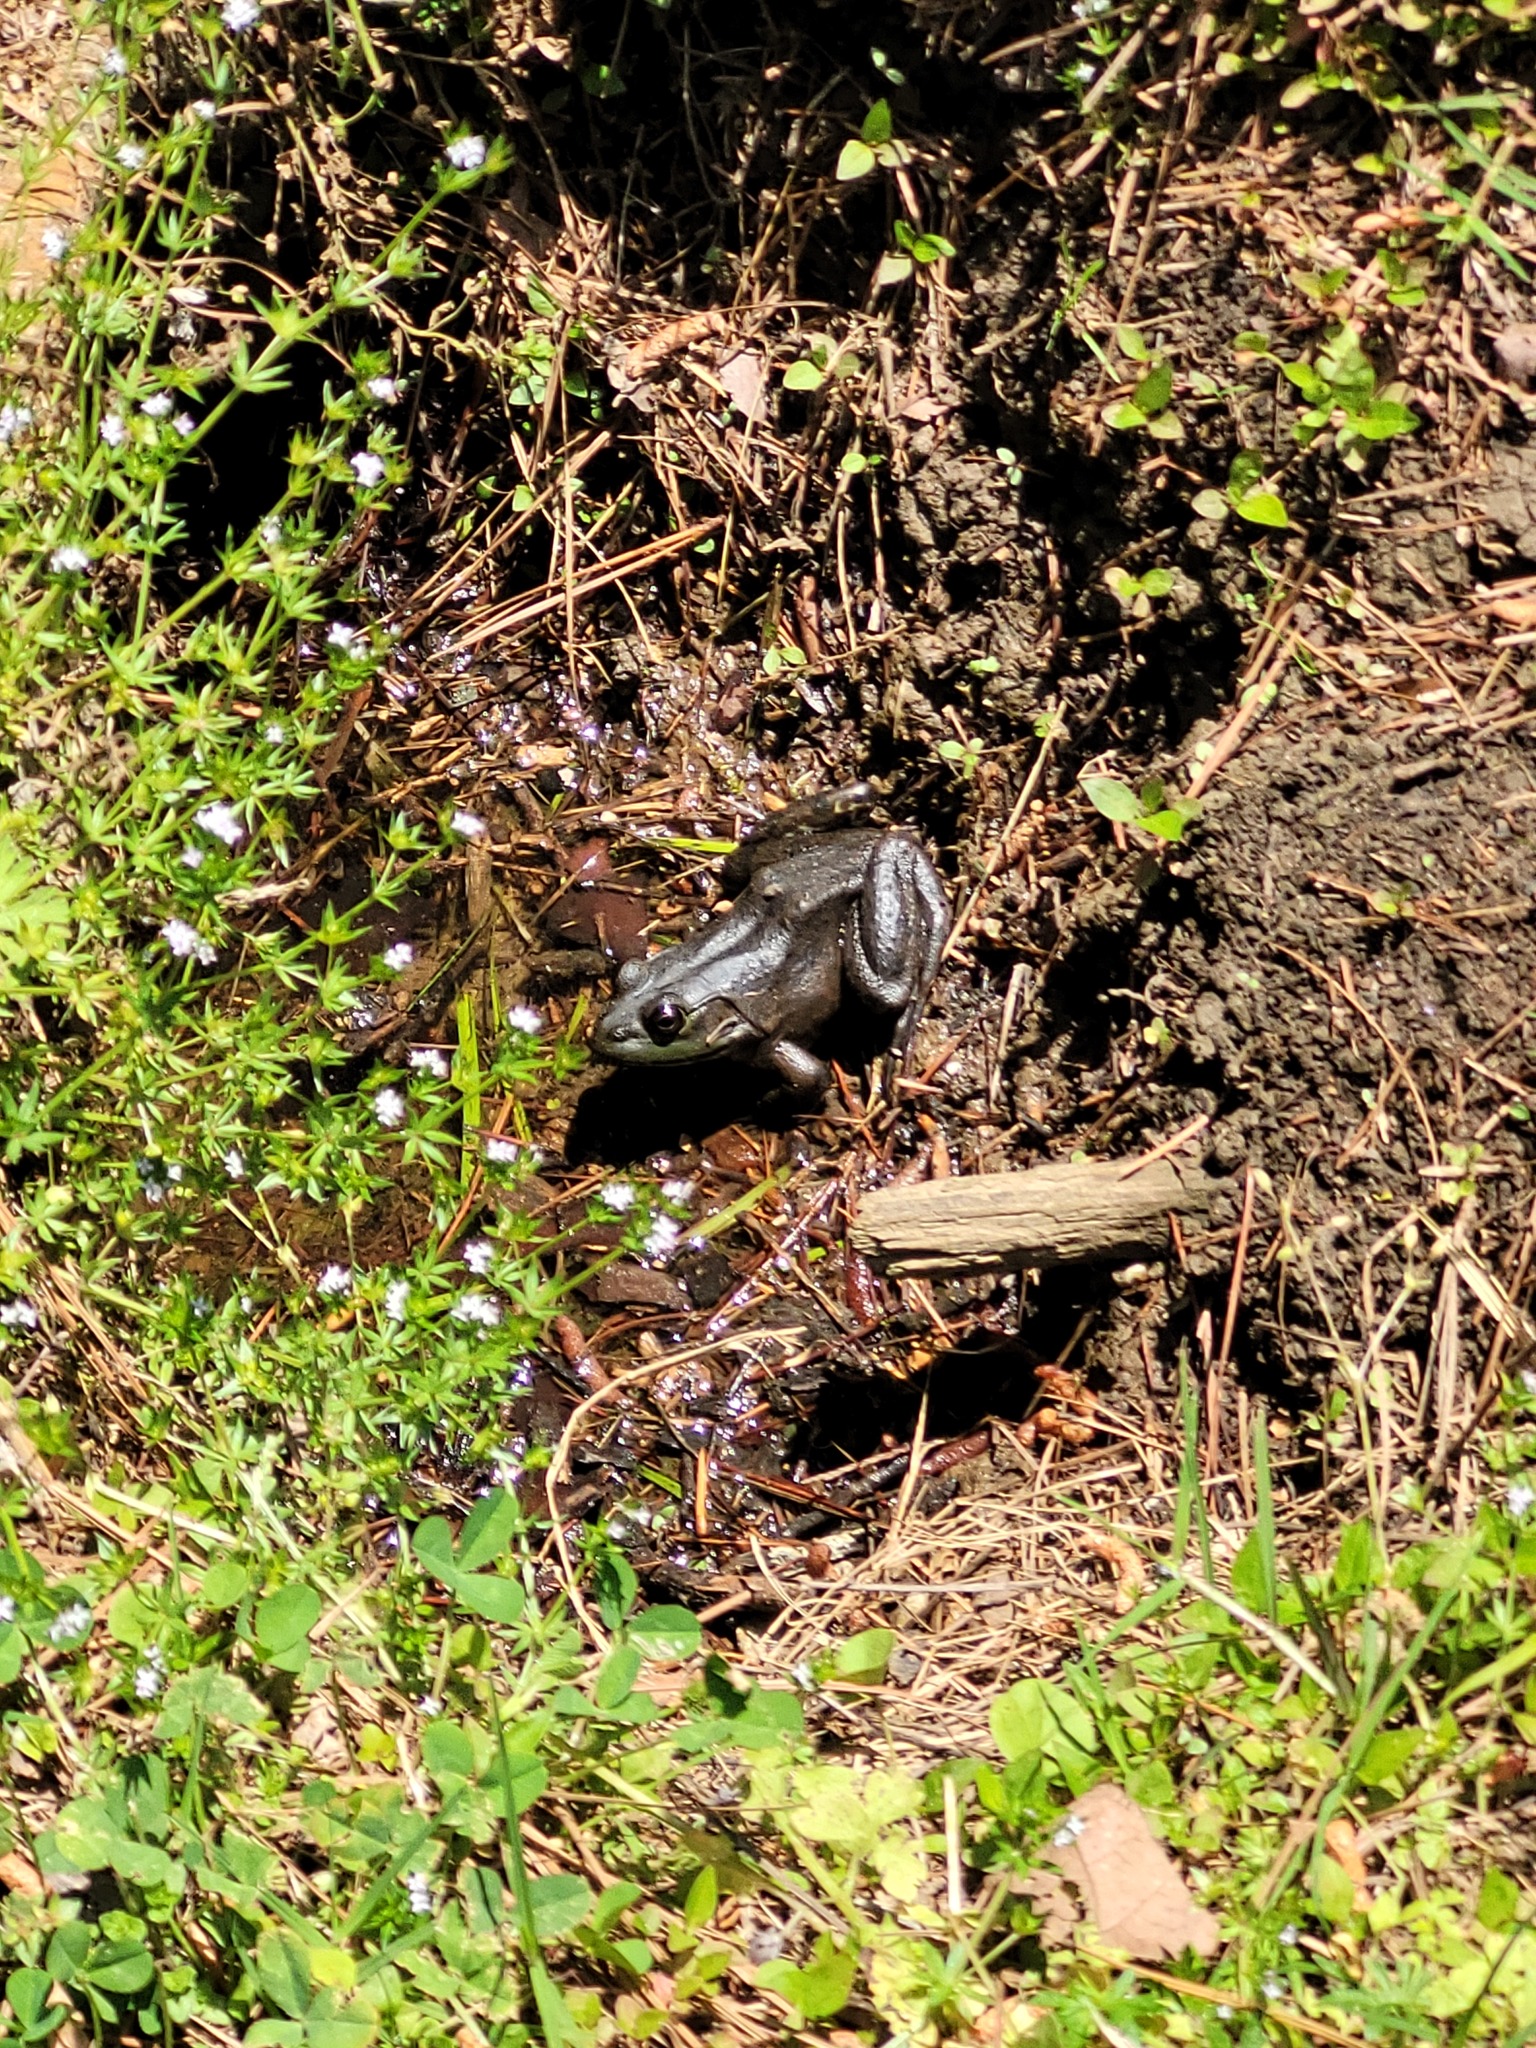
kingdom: Animalia
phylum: Chordata
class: Amphibia
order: Anura
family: Ranidae
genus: Lithobates
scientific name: Lithobates catesbeianus
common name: American bullfrog
